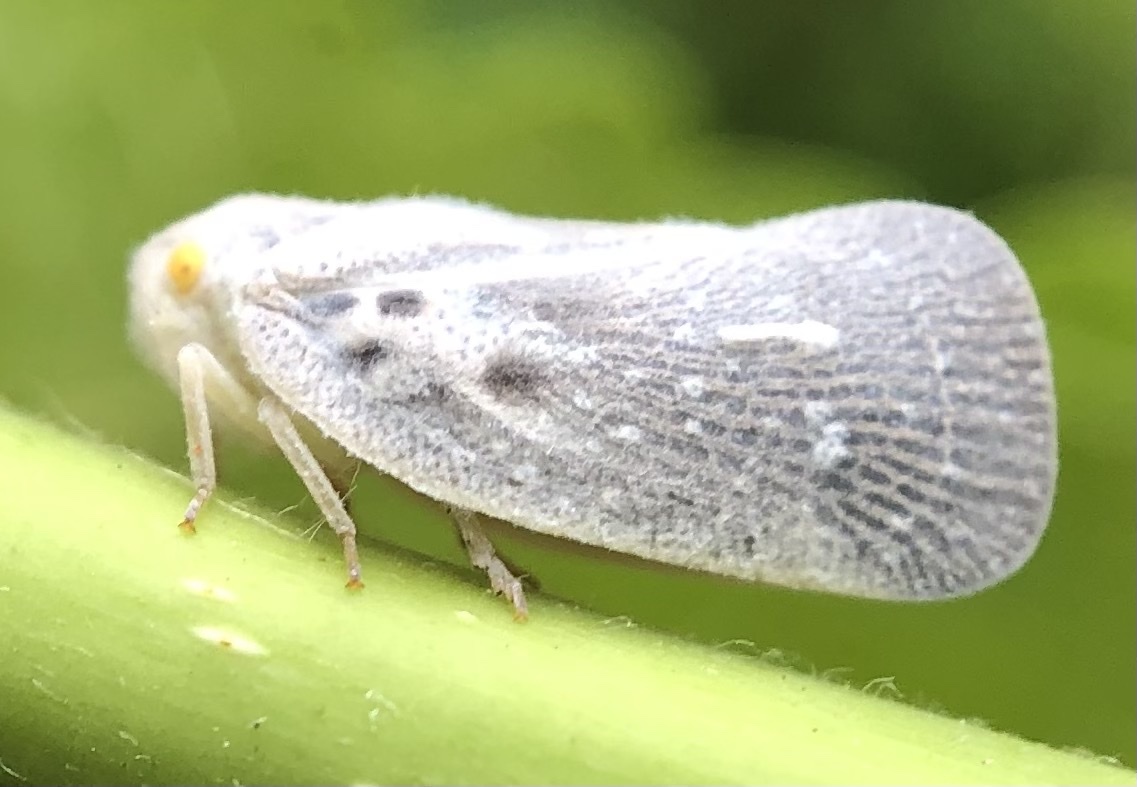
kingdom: Animalia
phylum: Arthropoda
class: Insecta
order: Hemiptera
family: Flatidae
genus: Metcalfa
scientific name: Metcalfa pruinosa
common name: Citrus flatid planthopper
